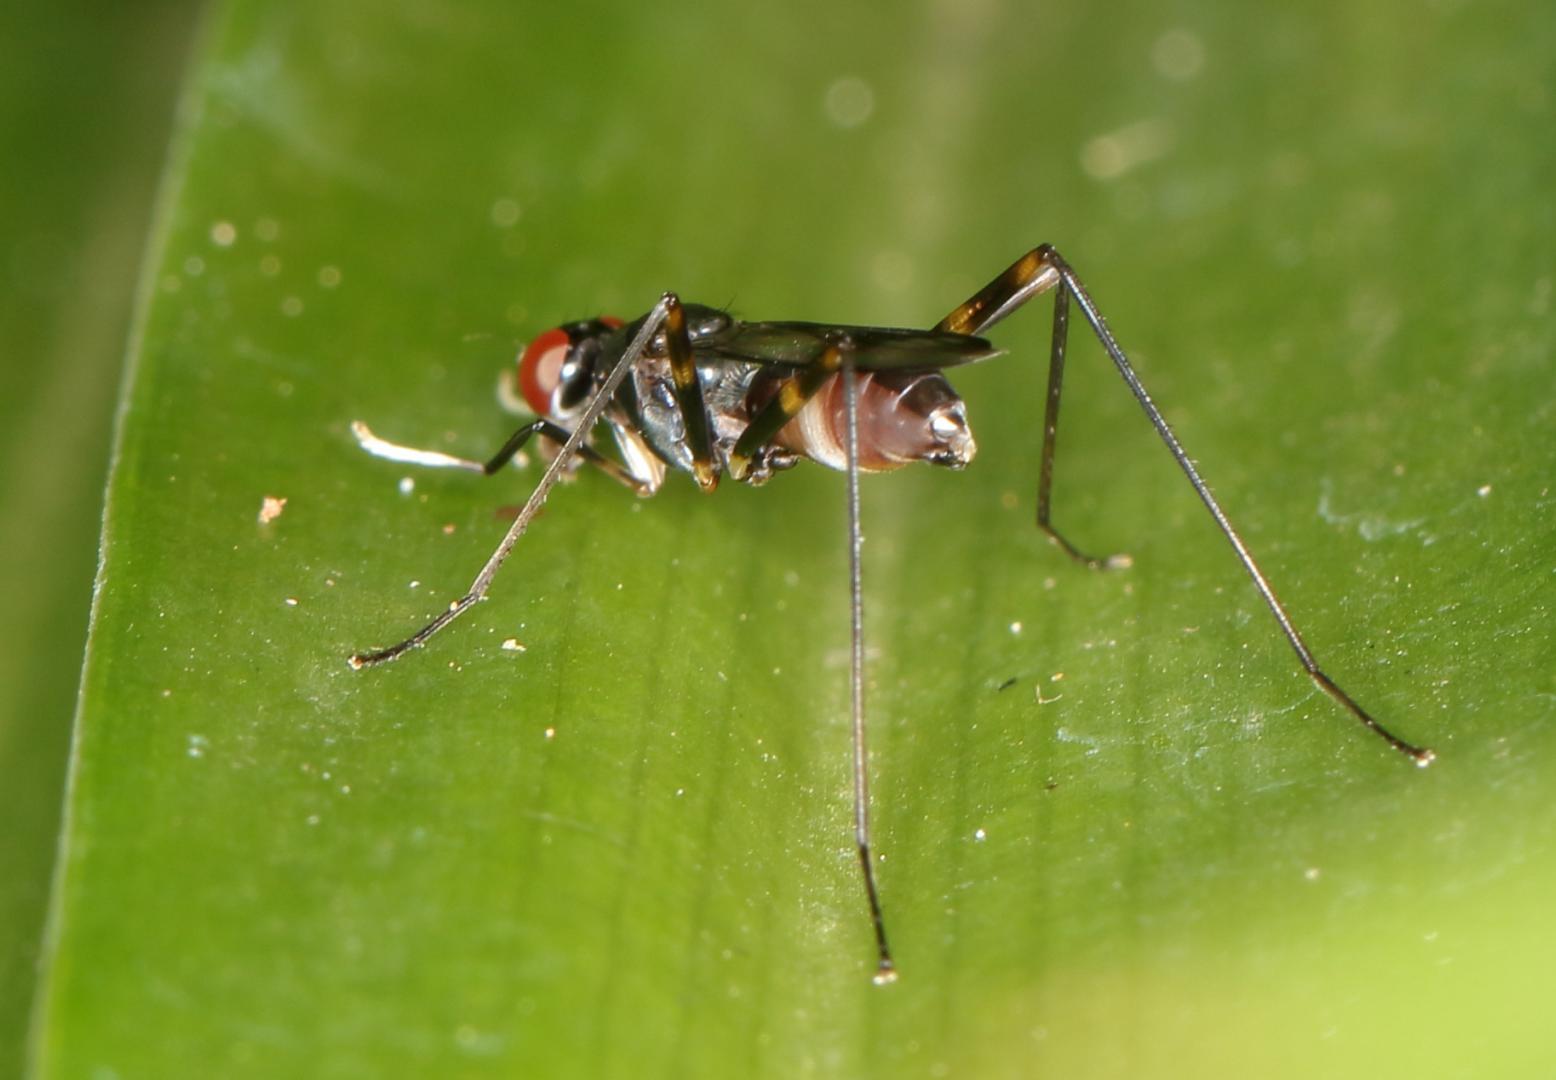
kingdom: Animalia
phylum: Arthropoda
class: Insecta
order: Diptera
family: Micropezidae
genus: Hybobata
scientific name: Hybobata
